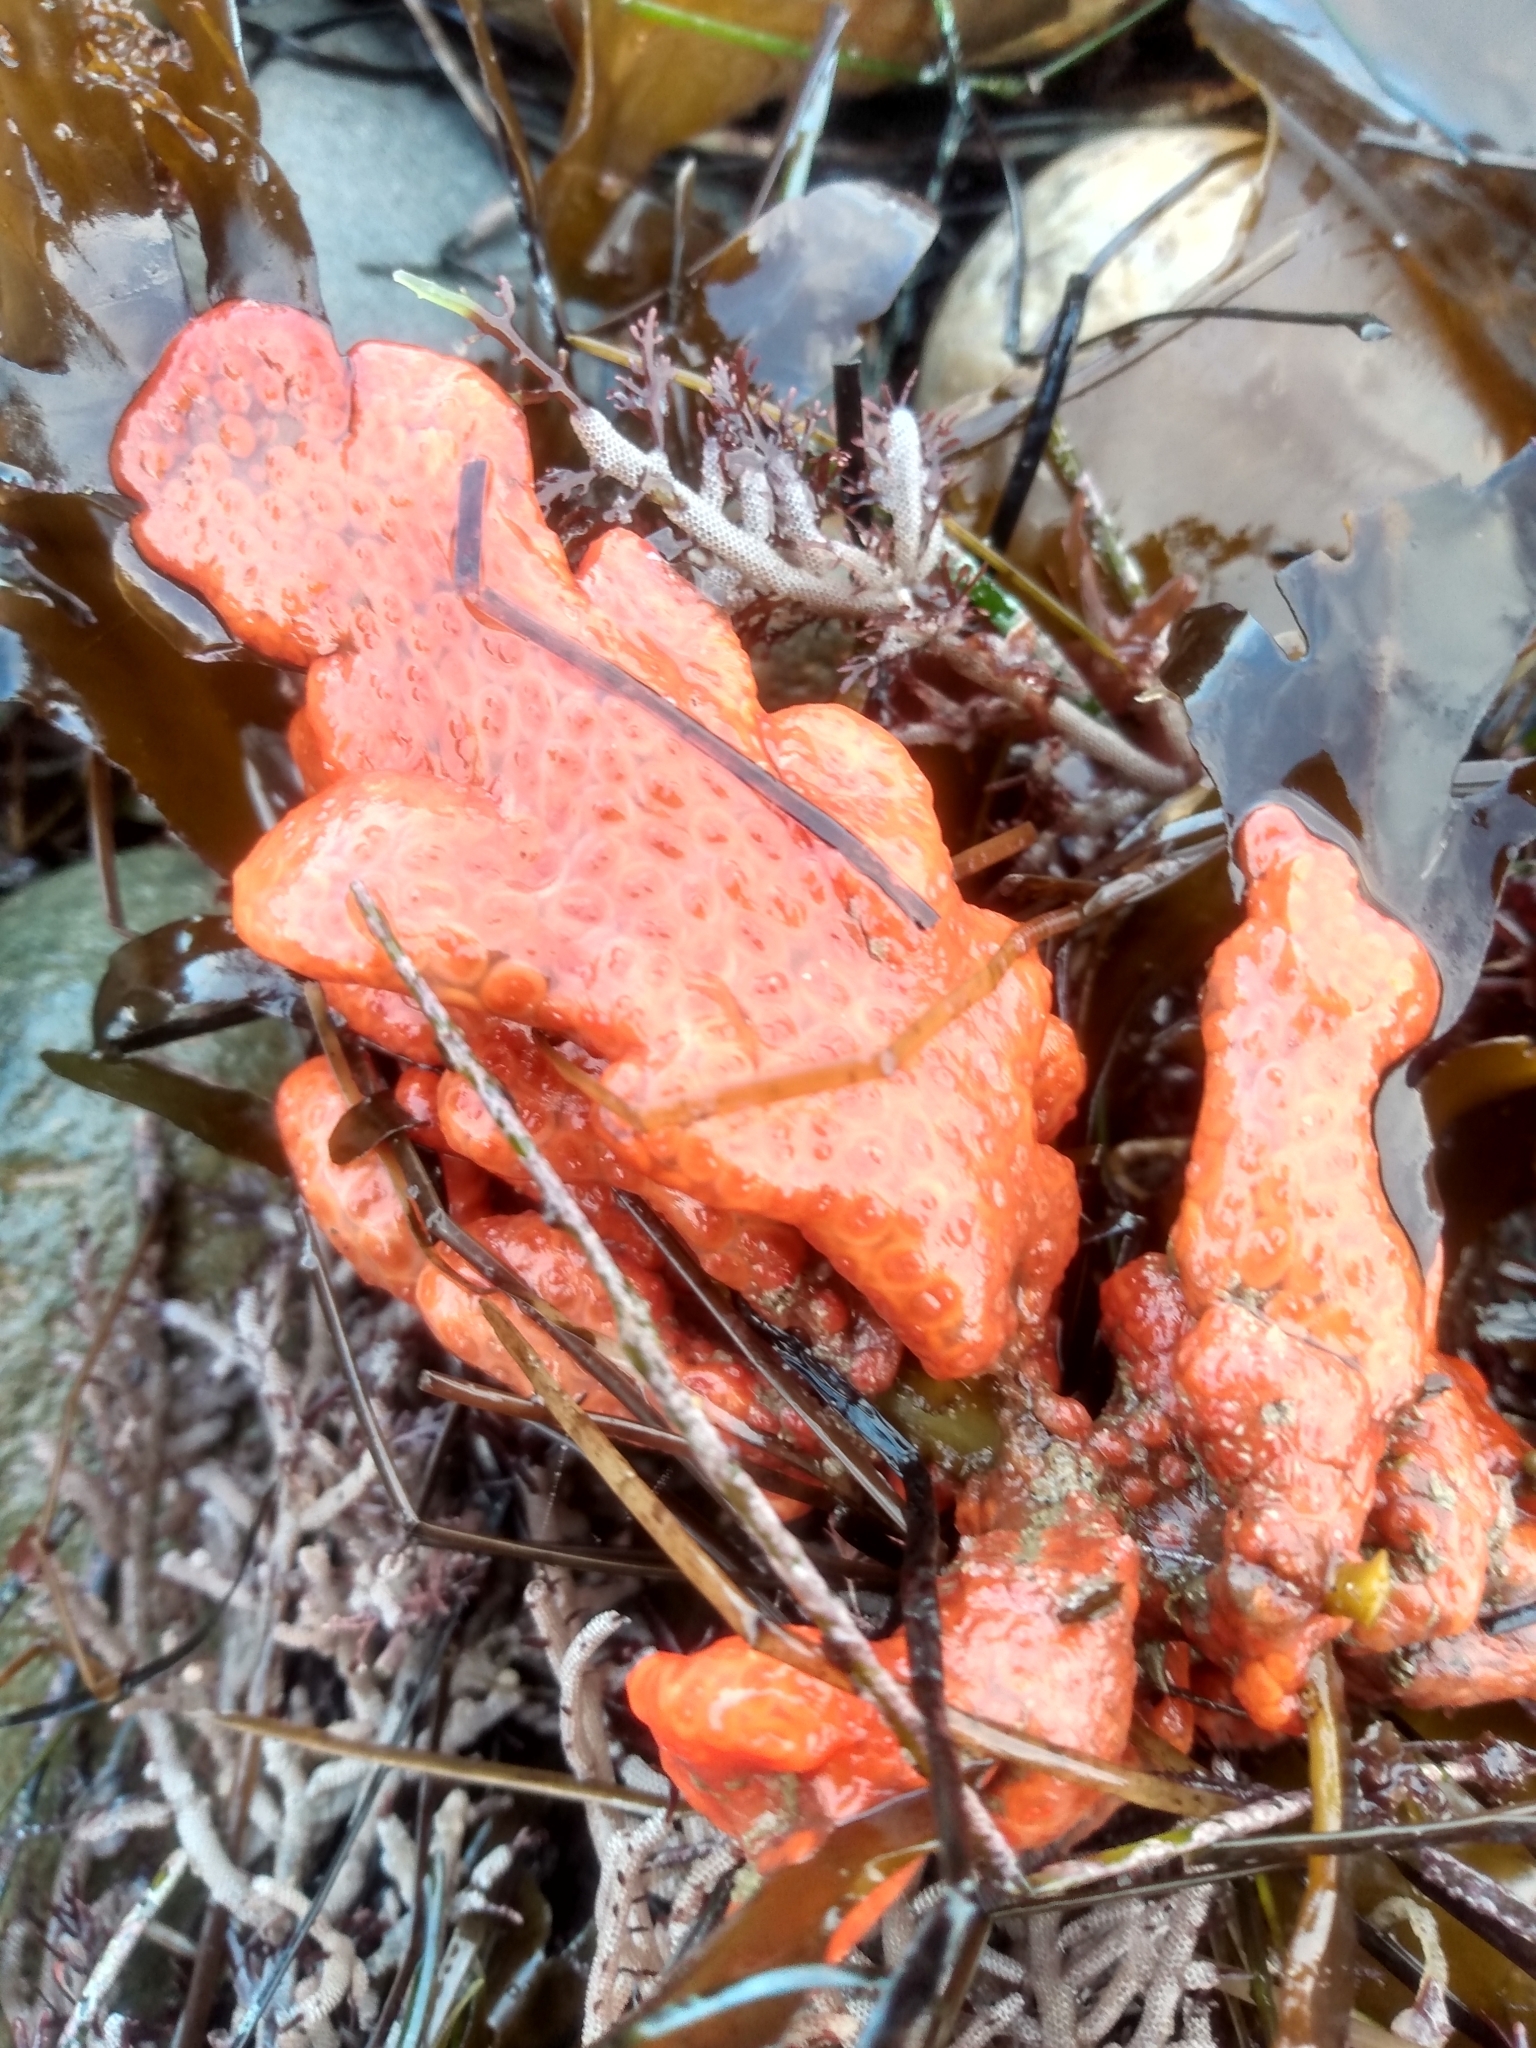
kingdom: Animalia
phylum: Chordata
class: Ascidiacea
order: Stolidobranchia
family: Styelidae
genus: Metandrocarpa
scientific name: Metandrocarpa dura
